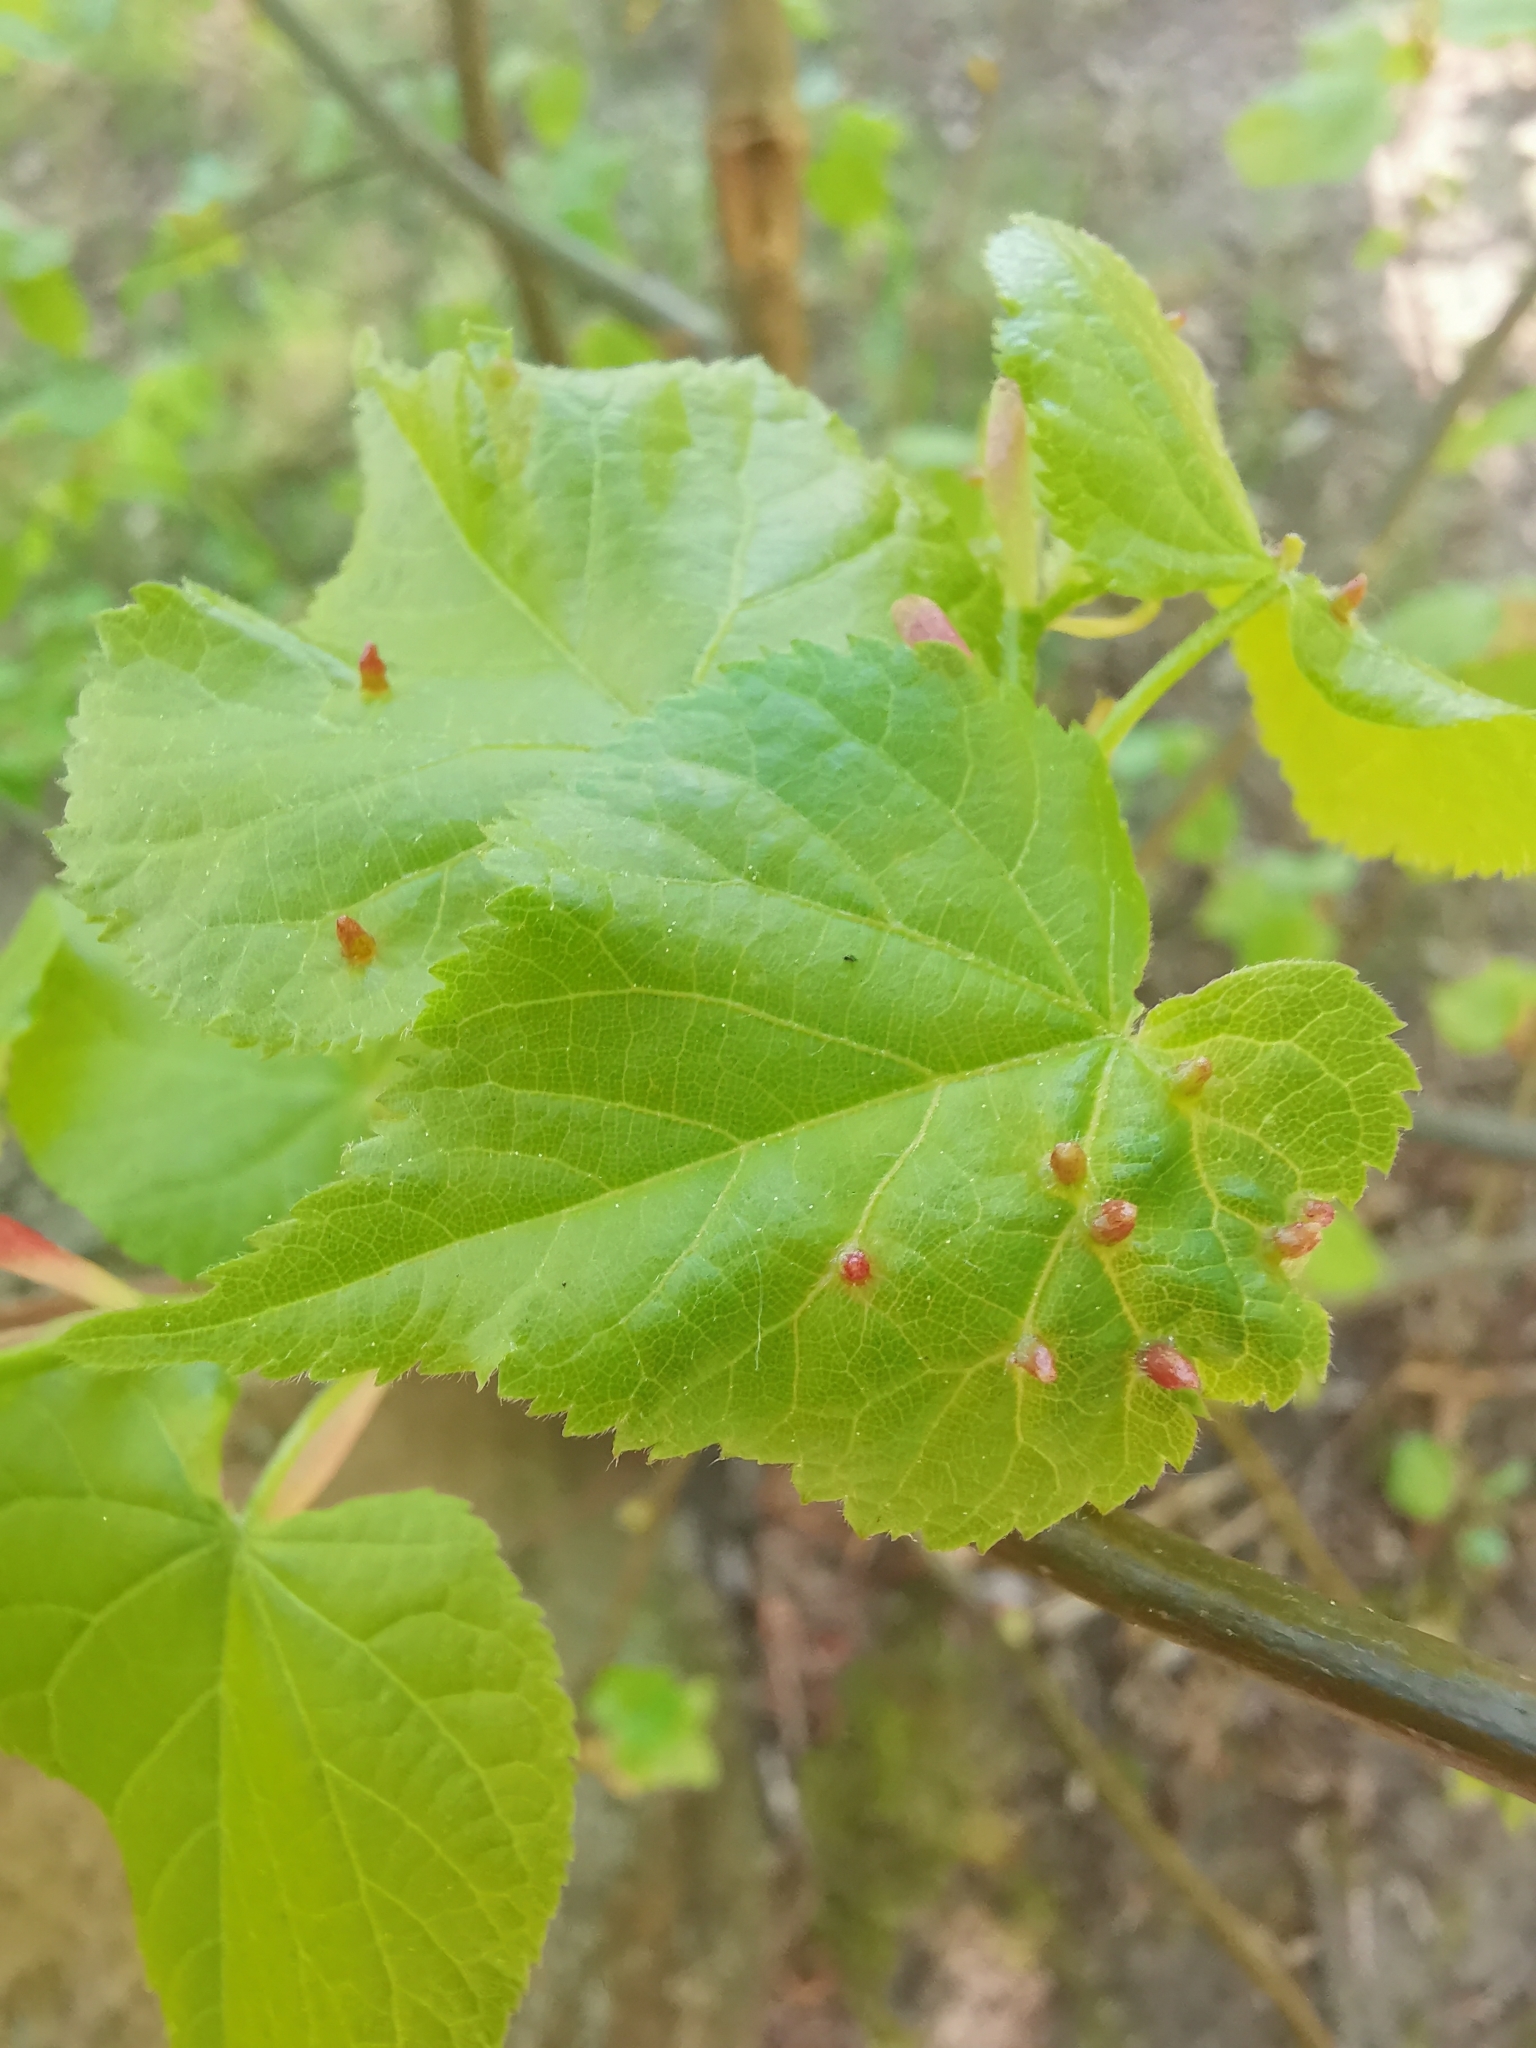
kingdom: Animalia
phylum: Arthropoda
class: Arachnida
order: Trombidiformes
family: Eriophyidae
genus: Eriophyes
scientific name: Eriophyes tiliae
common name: Red nail gall mite
